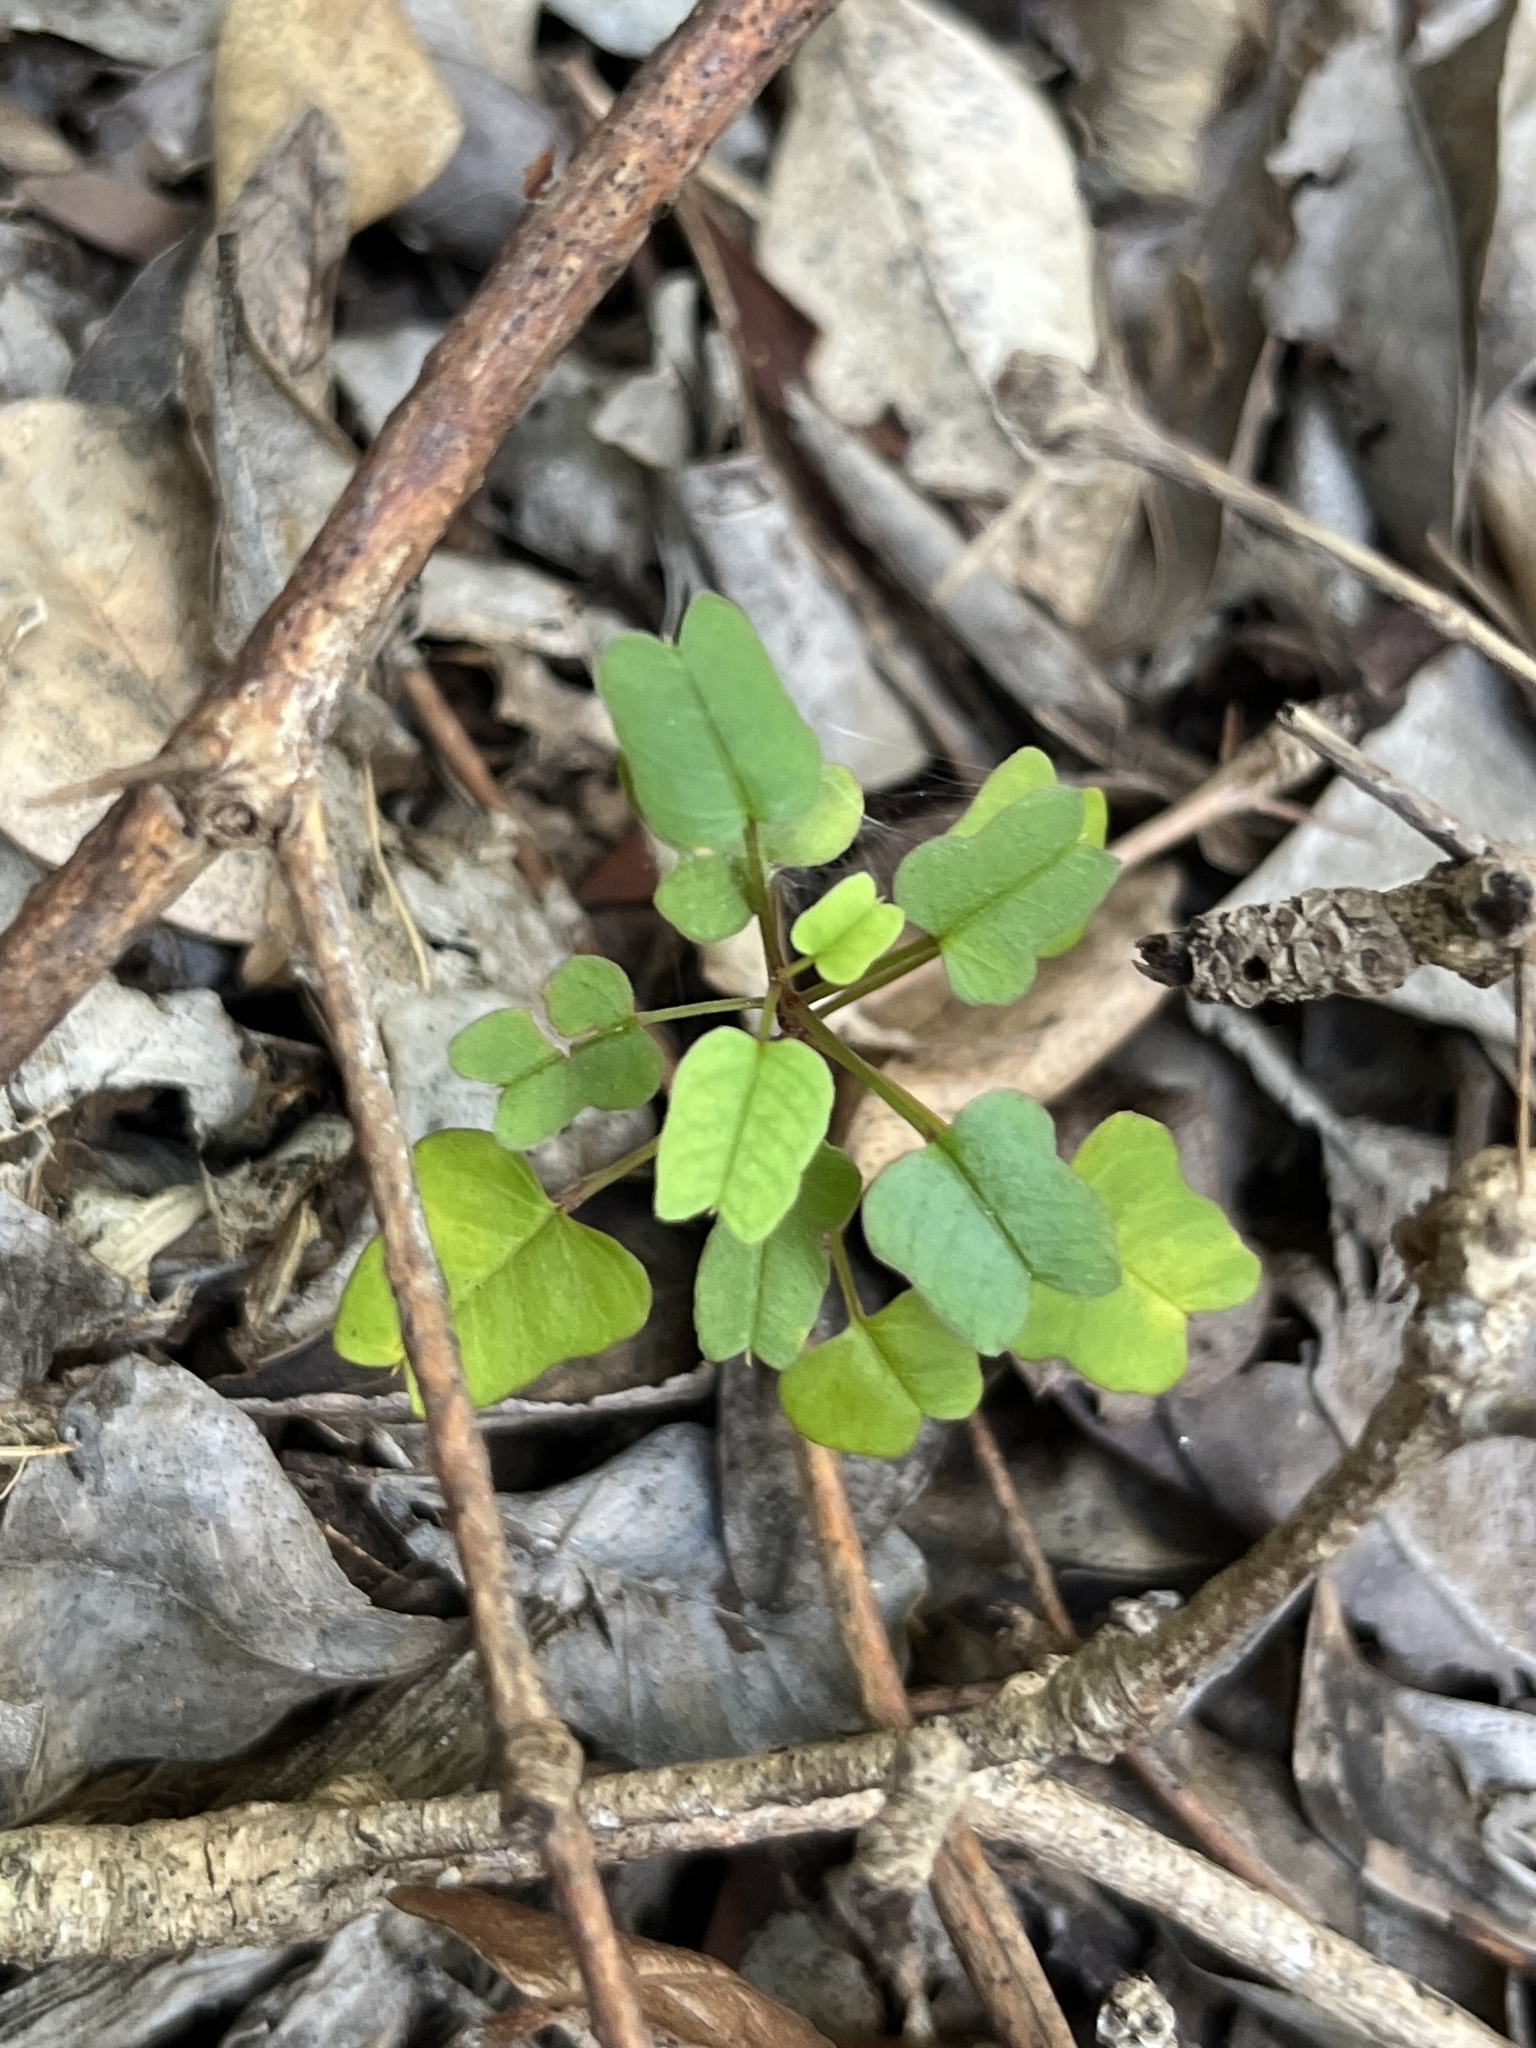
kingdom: Plantae
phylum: Tracheophyta
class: Magnoliopsida
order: Solanales
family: Convolvulaceae
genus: Ipomoea
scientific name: Ipomoea steudelii
